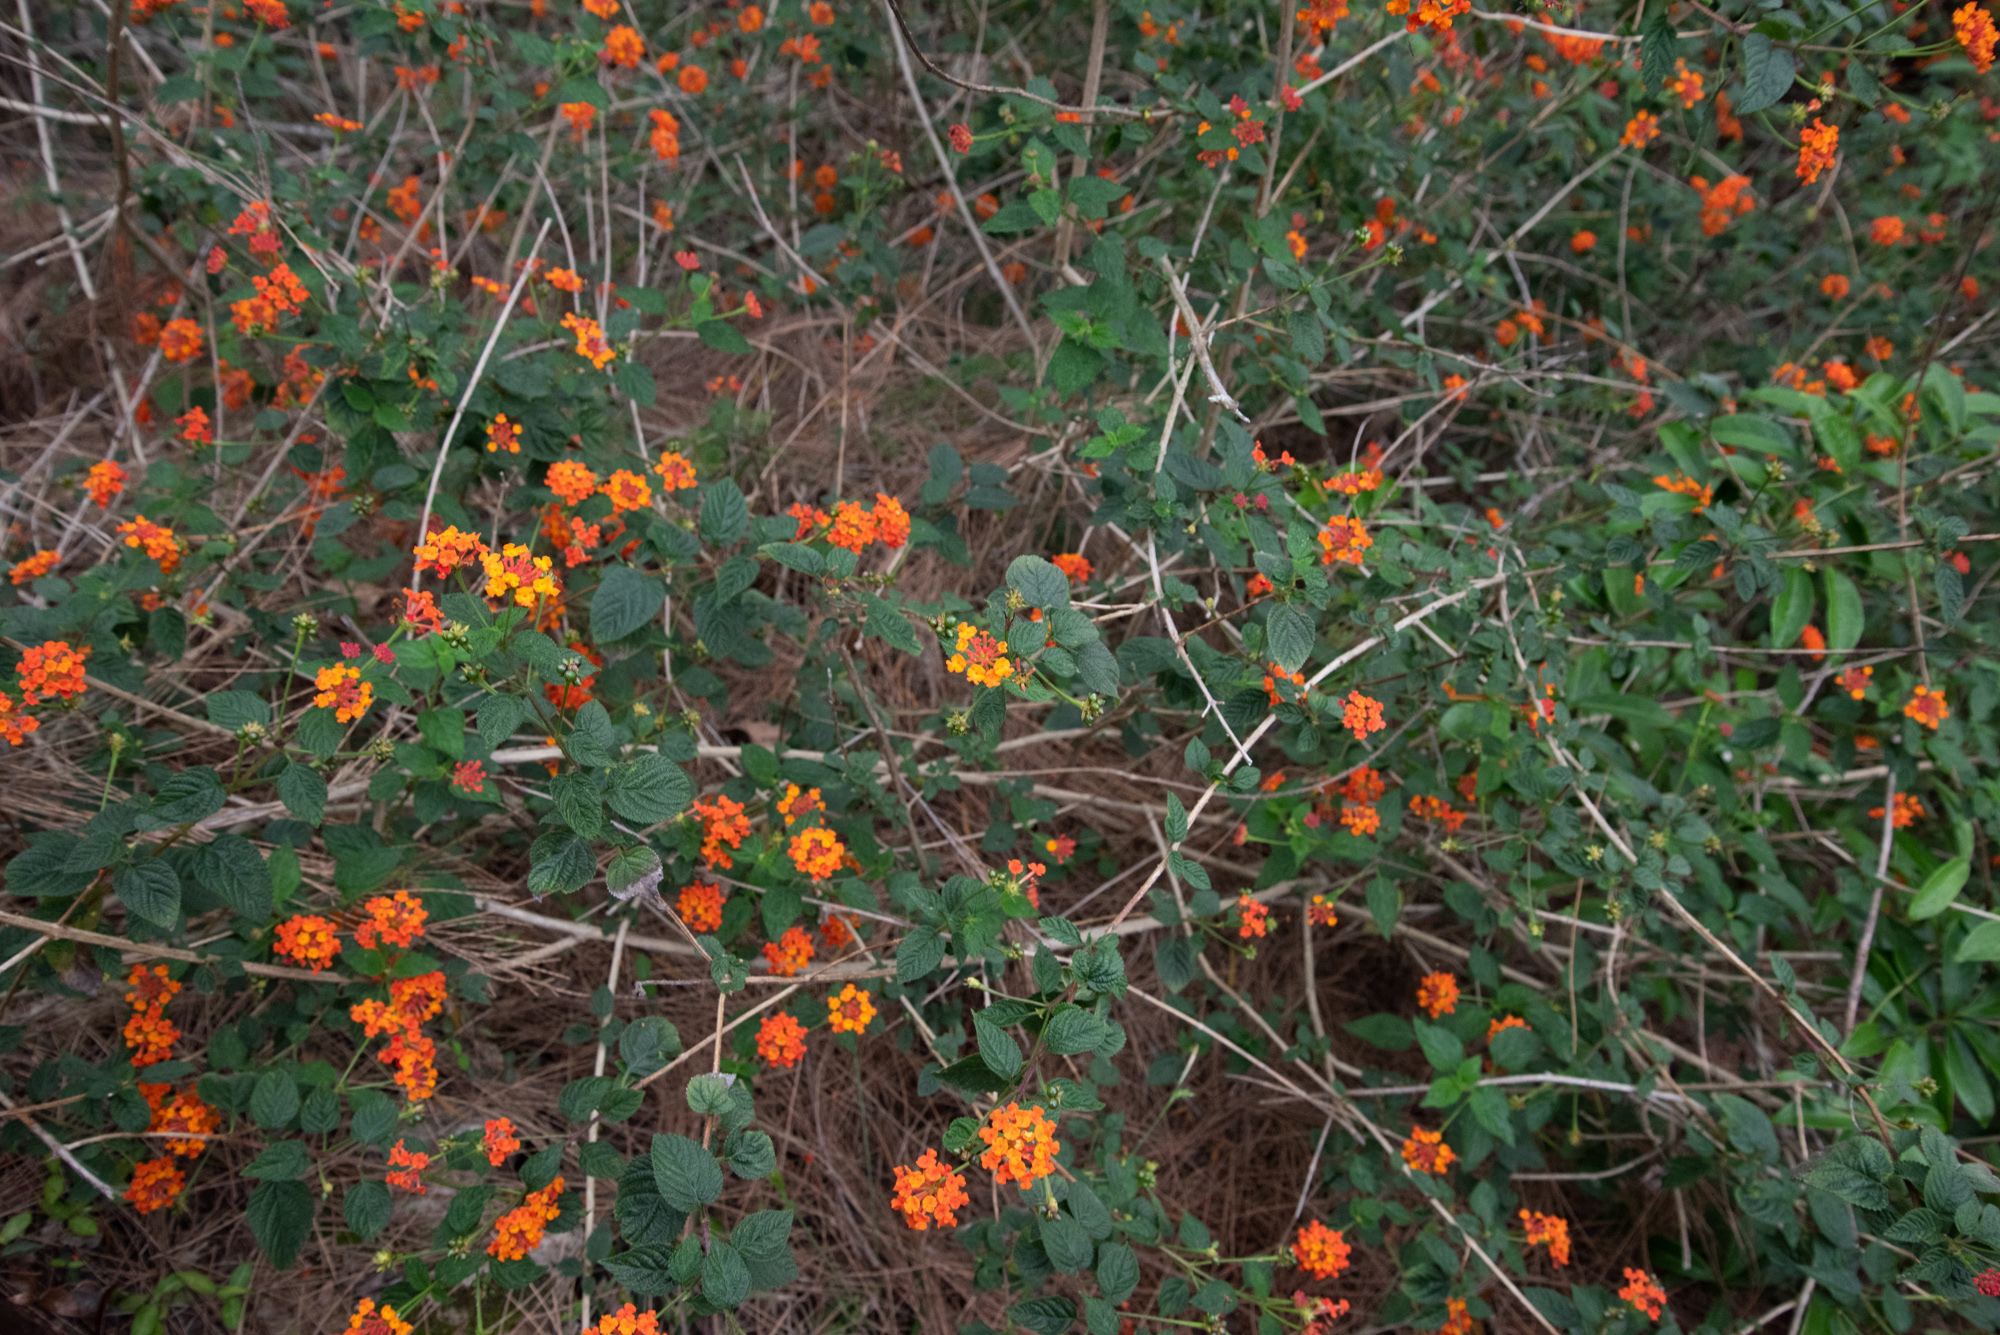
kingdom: Plantae
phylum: Tracheophyta
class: Magnoliopsida
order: Lamiales
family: Verbenaceae
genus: Lantana
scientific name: Lantana camara
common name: Lantana
